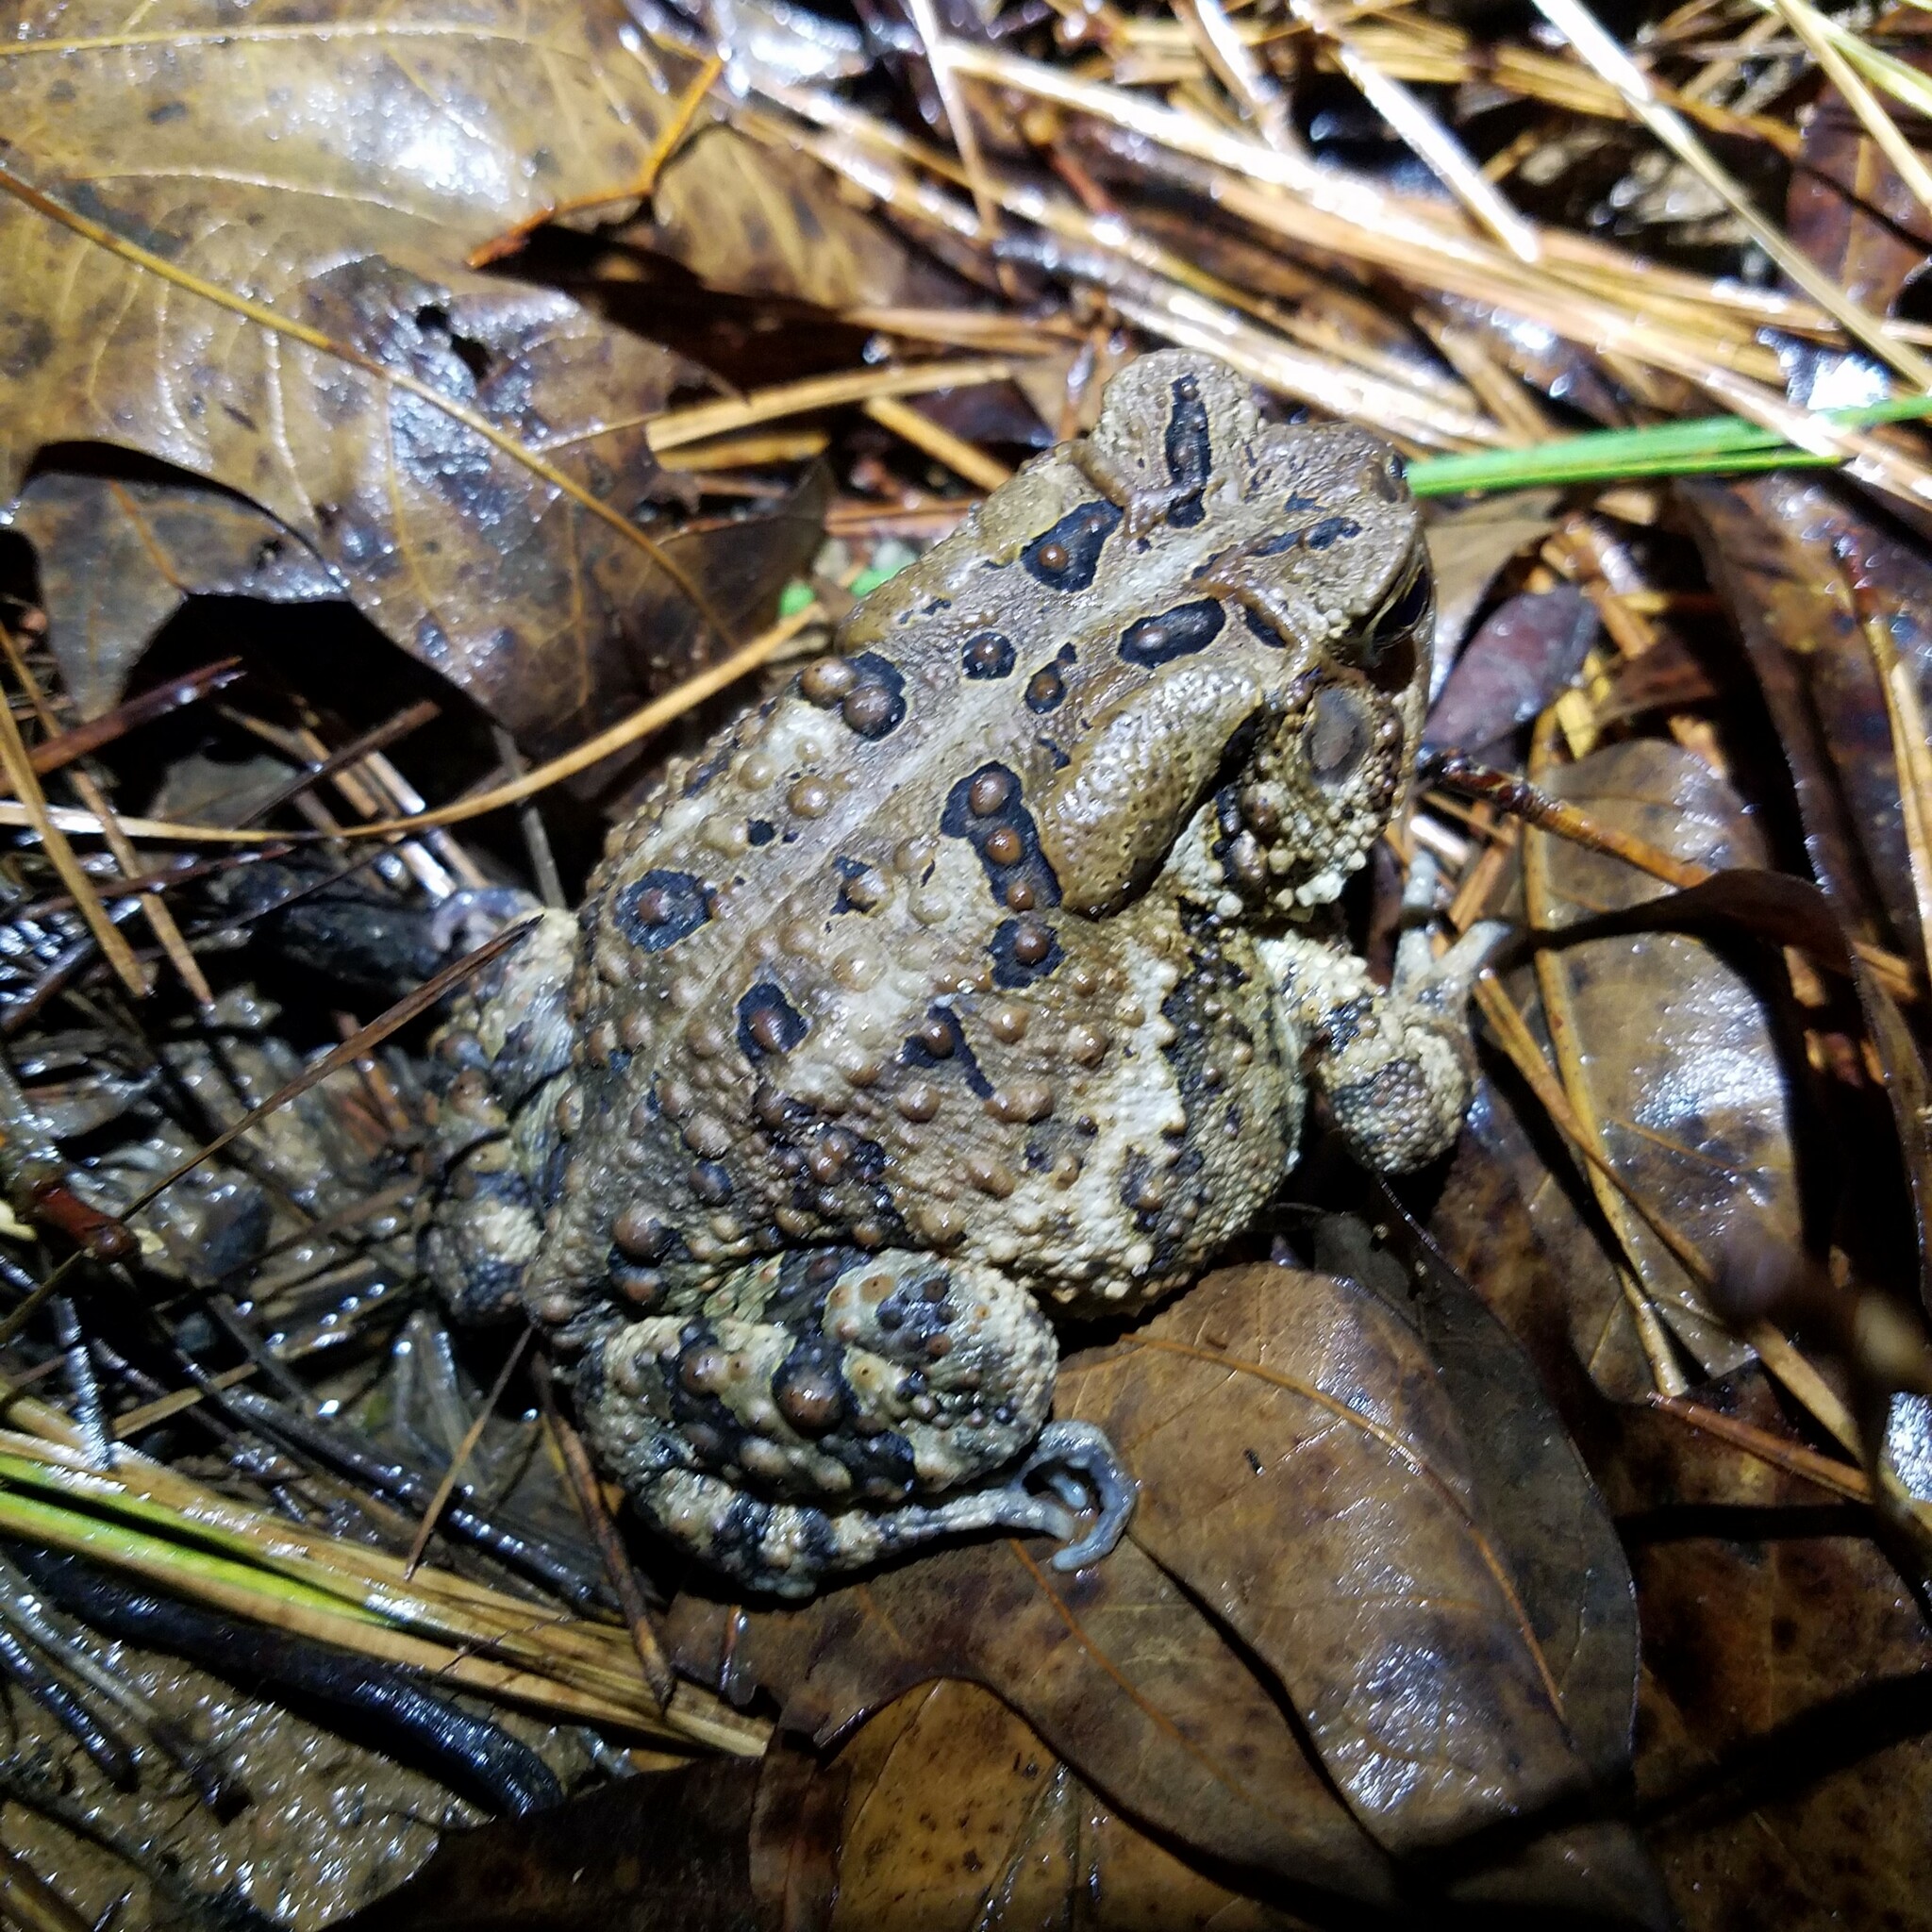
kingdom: Animalia
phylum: Chordata
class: Amphibia
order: Anura
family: Bufonidae
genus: Anaxyrus
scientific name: Anaxyrus americanus
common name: American toad
